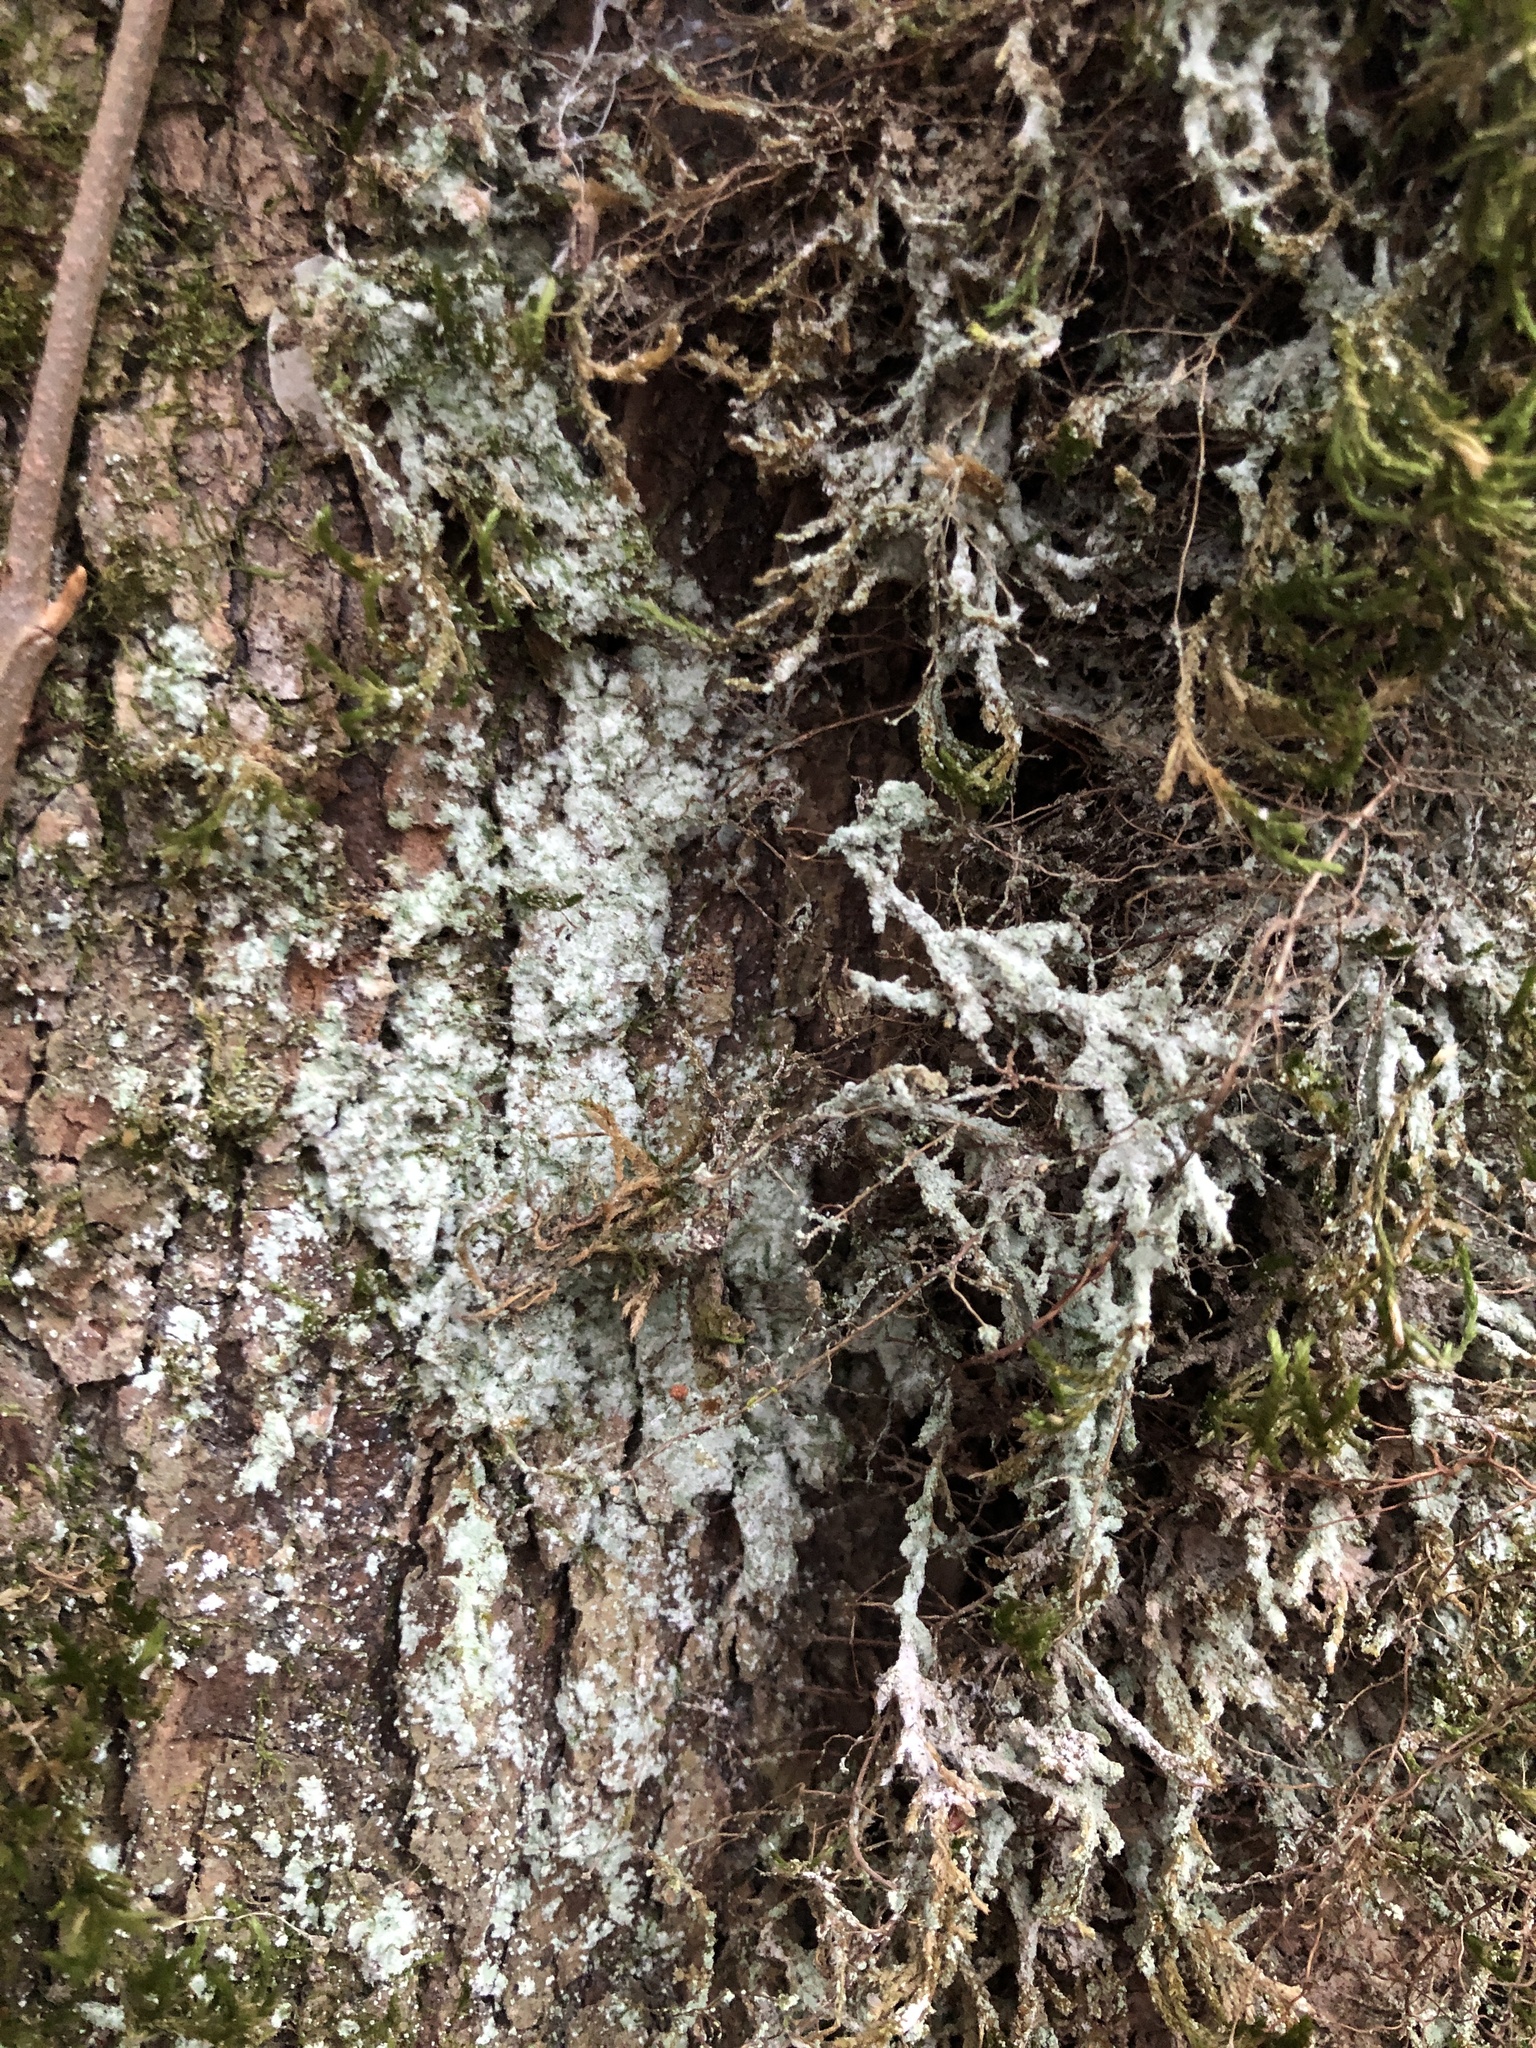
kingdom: Fungi
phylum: Ascomycota
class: Lecanoromycetes
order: Lecanorales
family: Stereocaulaceae
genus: Lepraria
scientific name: Lepraria lobificans
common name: Fluffy dust lichen
